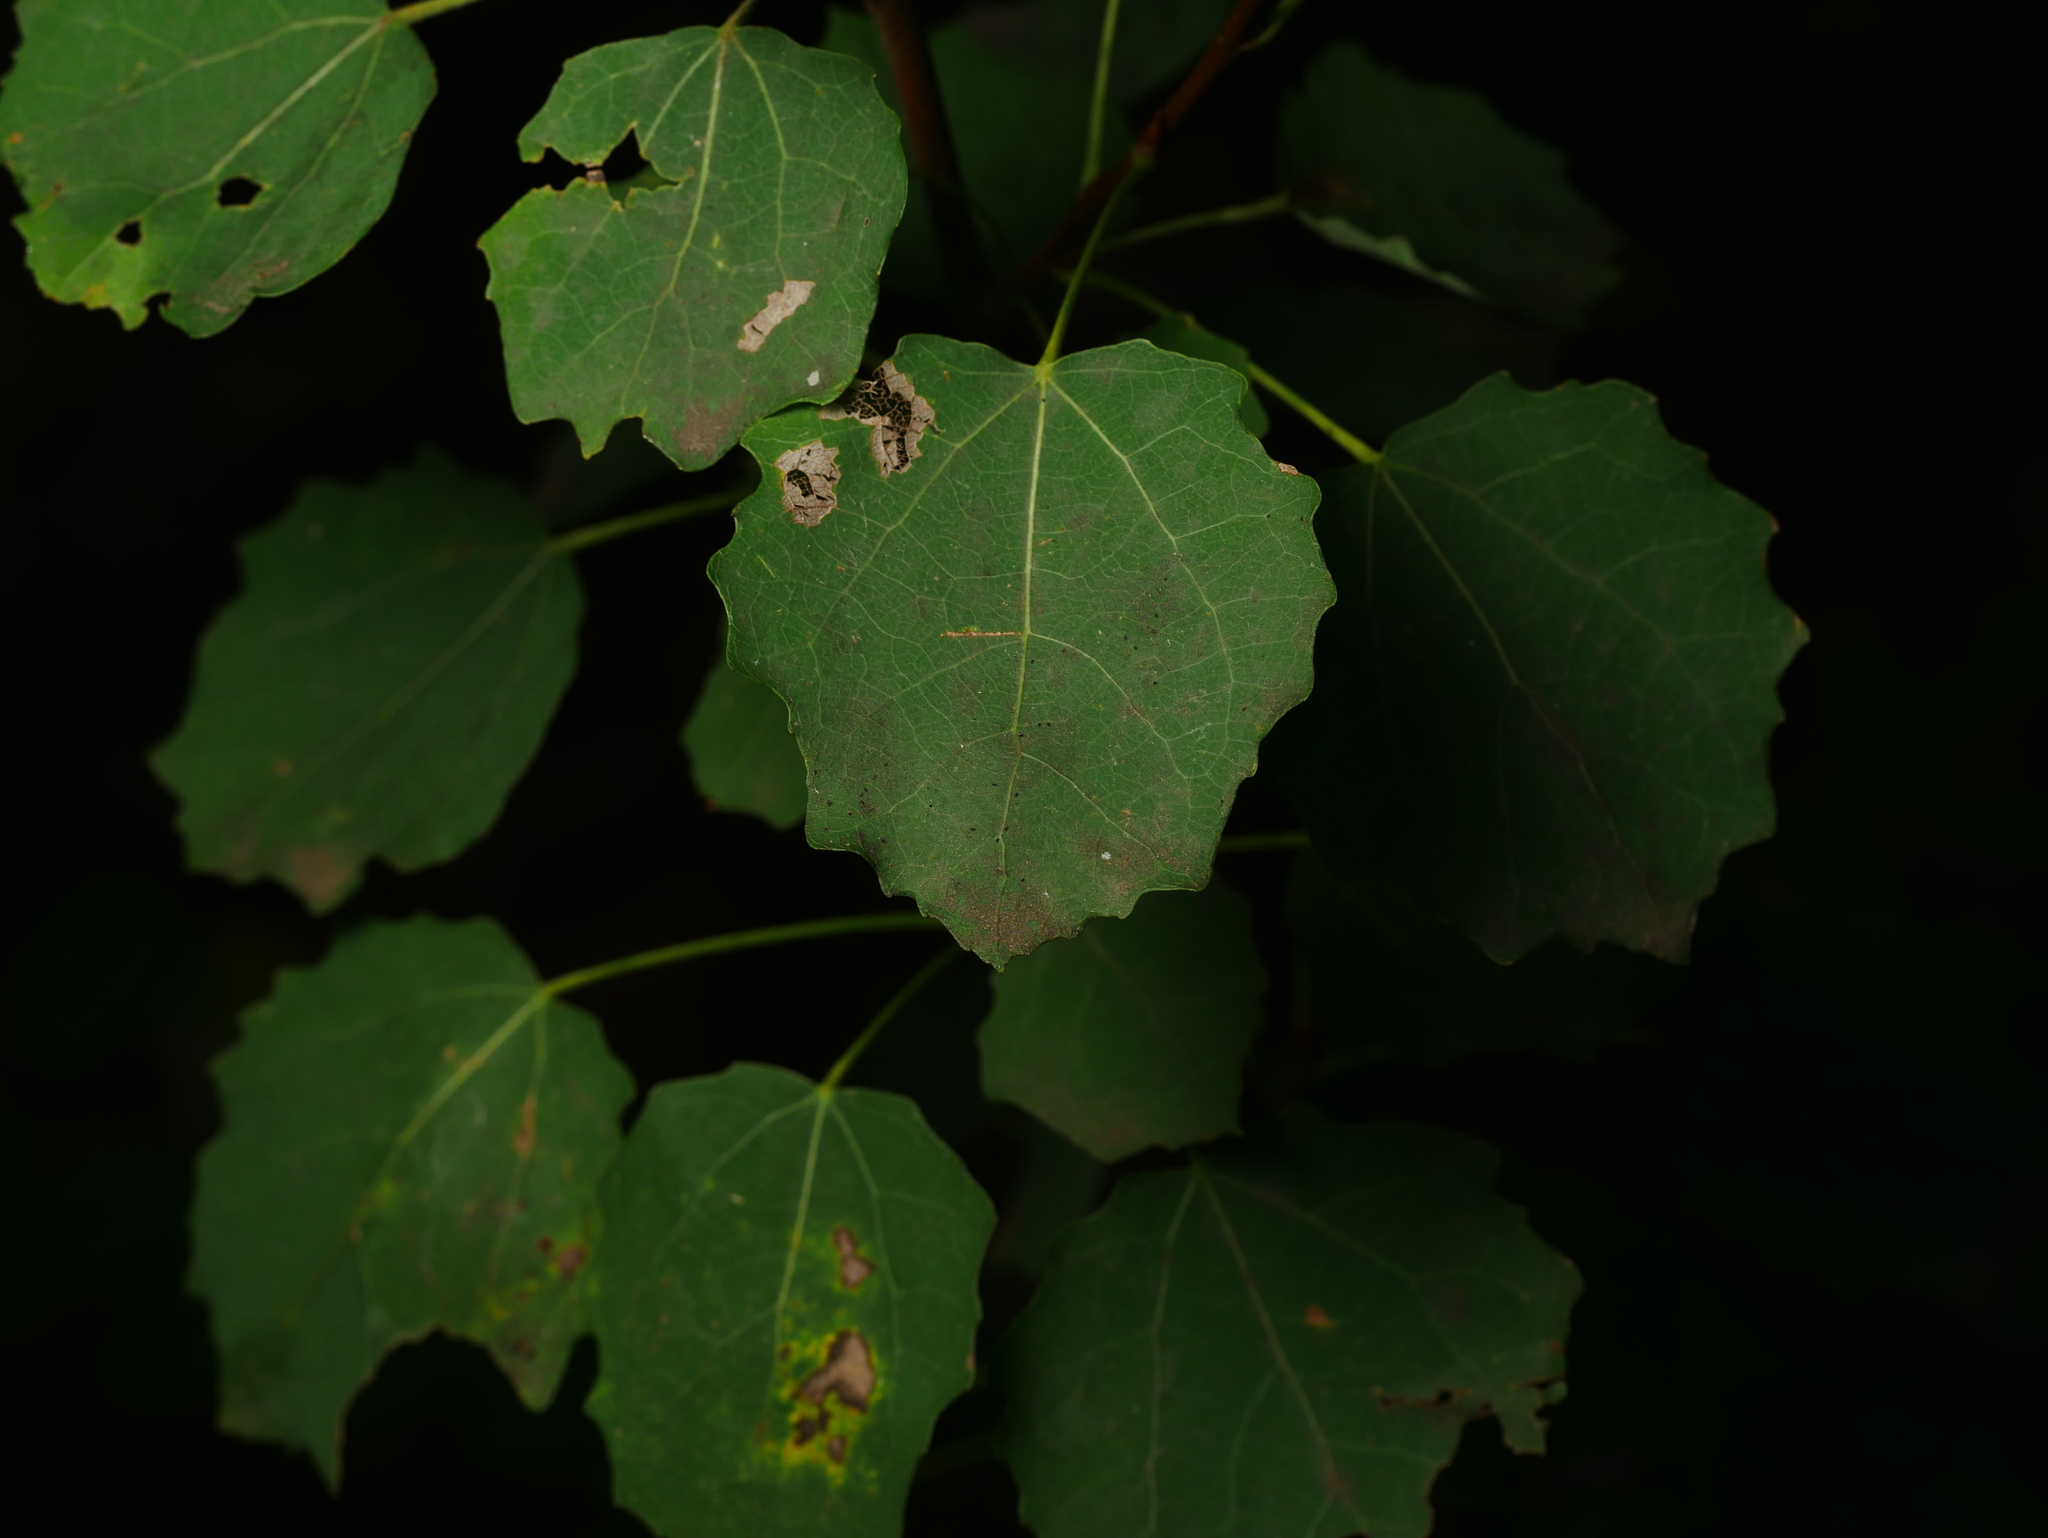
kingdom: Plantae
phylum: Tracheophyta
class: Magnoliopsida
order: Malpighiales
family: Salicaceae
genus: Populus
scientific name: Populus tremula
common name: European aspen
